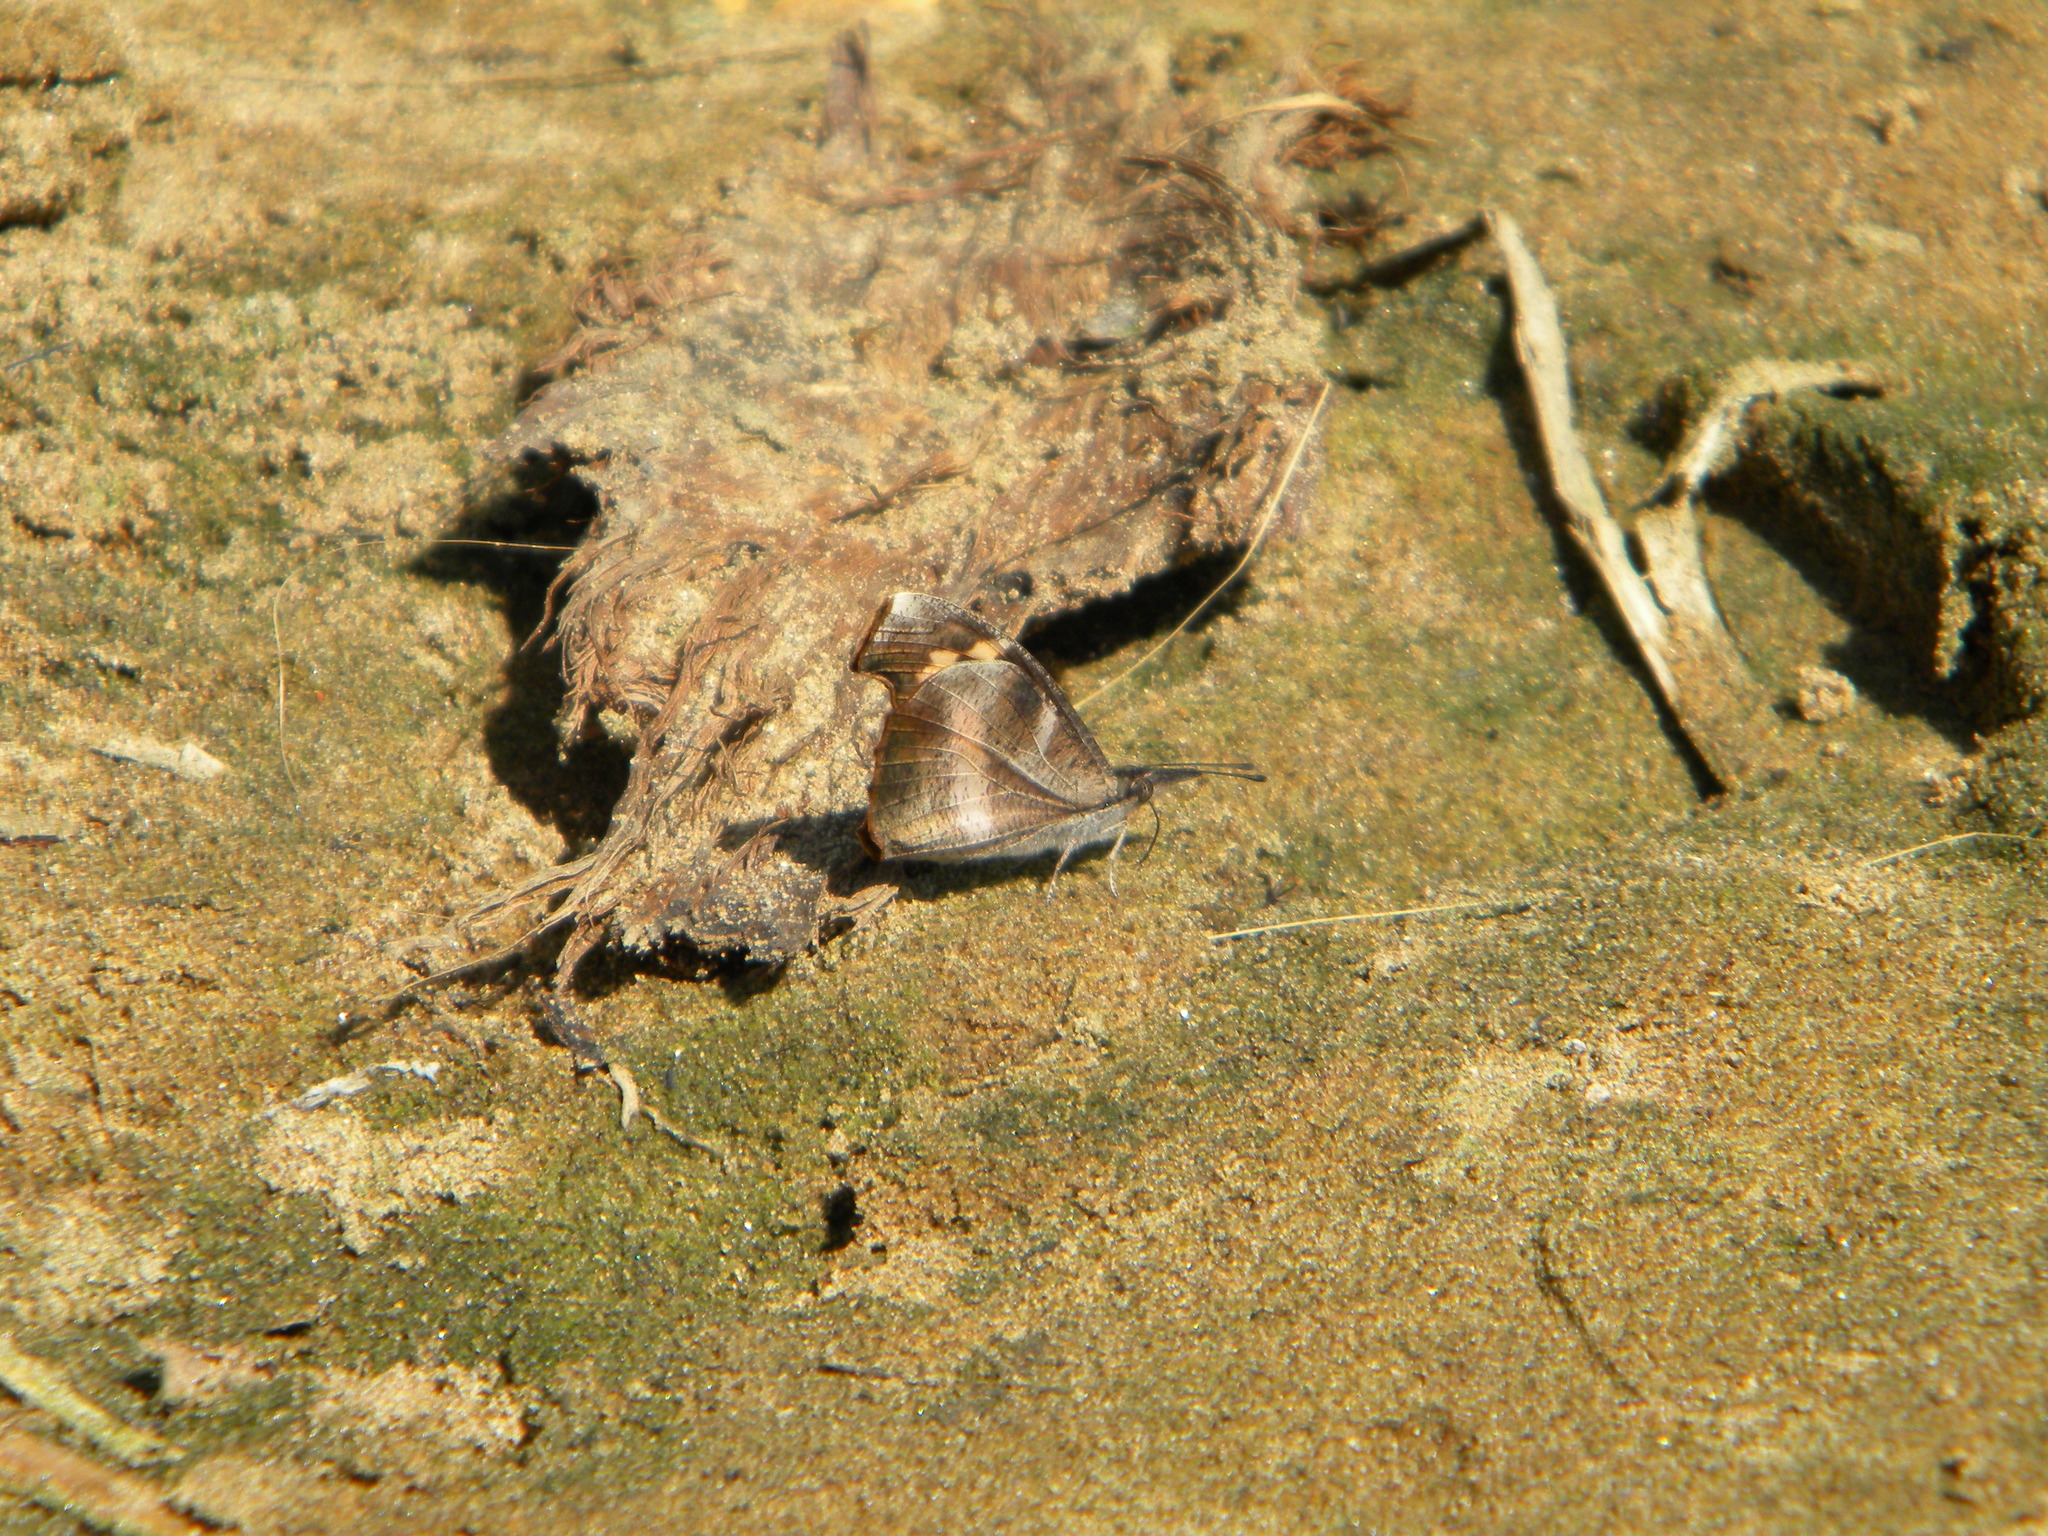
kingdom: Animalia
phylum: Arthropoda
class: Insecta
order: Lepidoptera
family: Nymphalidae
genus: Libythea
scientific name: Libythea myrrha
